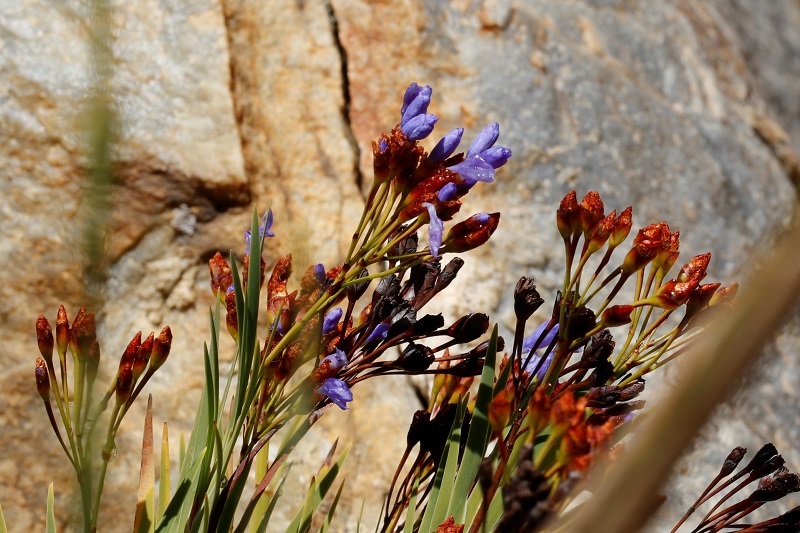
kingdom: Plantae
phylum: Tracheophyta
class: Liliopsida
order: Asparagales
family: Iridaceae
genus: Nivenia
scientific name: Nivenia binata
